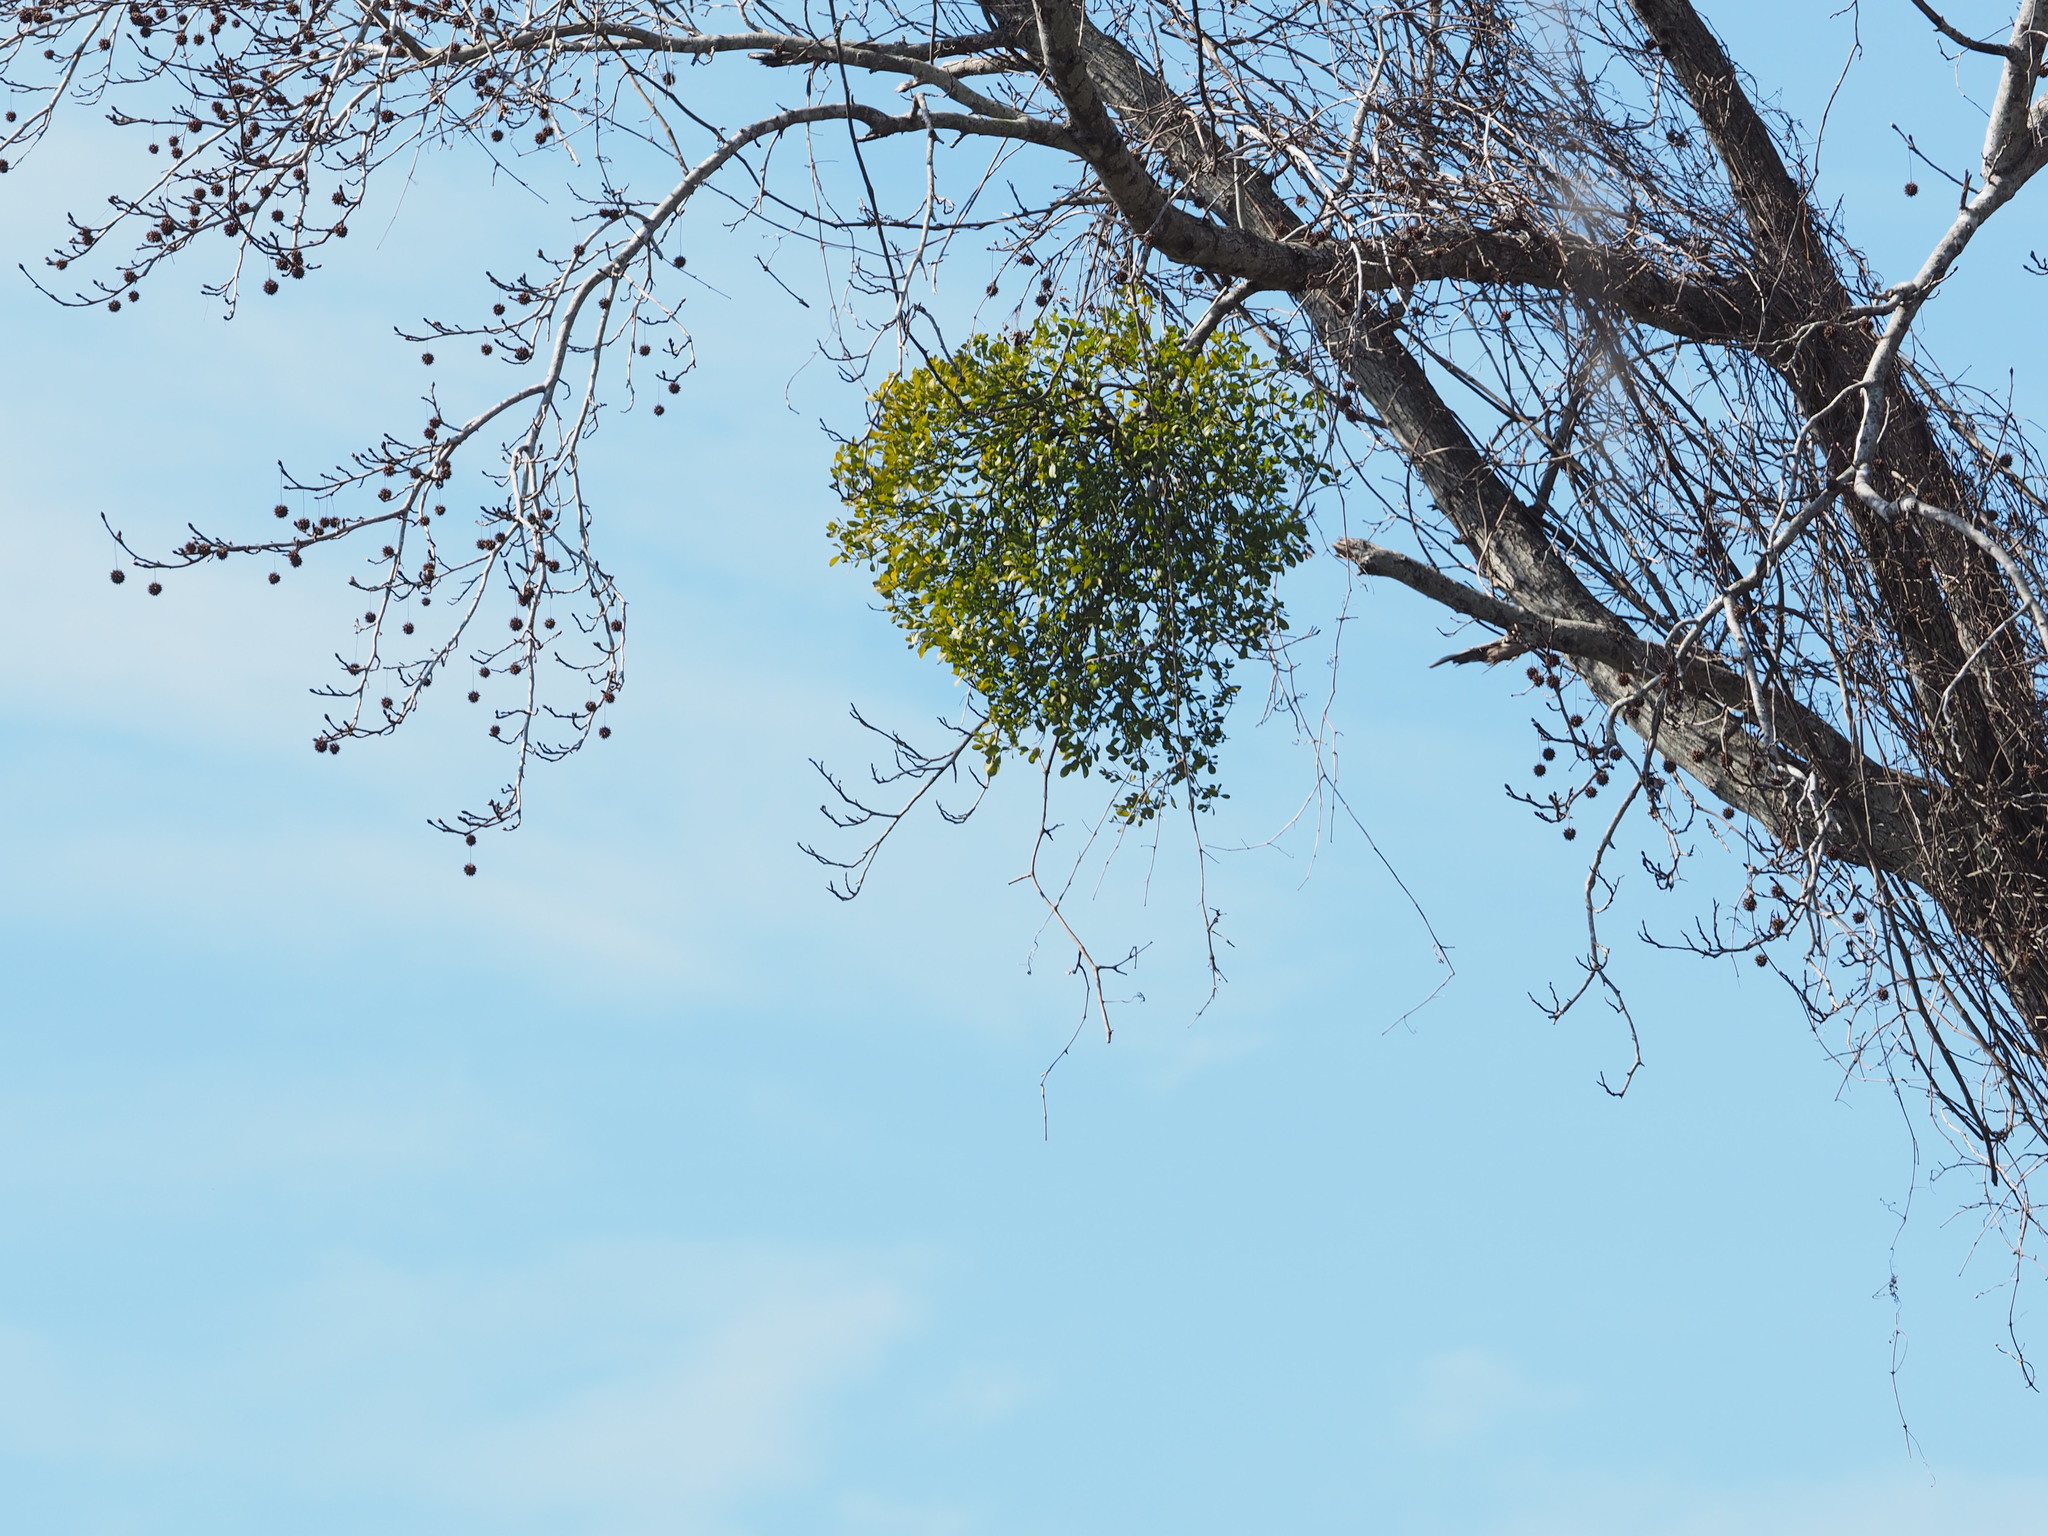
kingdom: Plantae
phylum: Tracheophyta
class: Magnoliopsida
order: Santalales
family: Viscaceae
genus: Phoradendron
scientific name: Phoradendron leucarpum
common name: Pacific mistletoe
